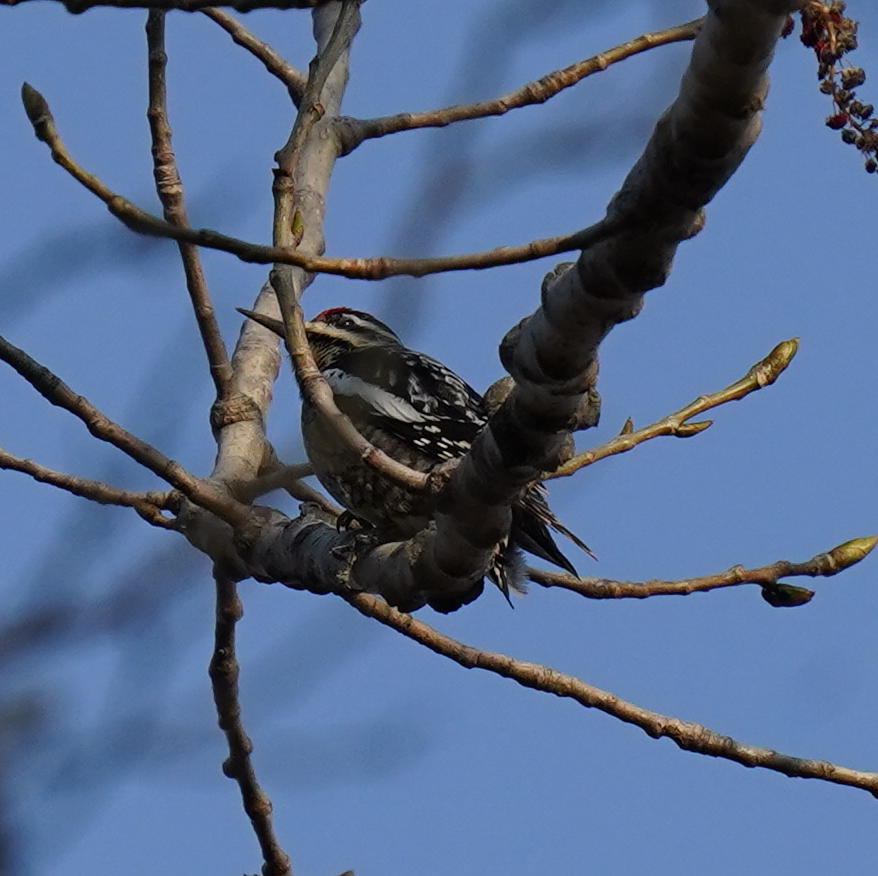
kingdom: Animalia
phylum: Chordata
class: Aves
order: Piciformes
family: Picidae
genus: Sphyrapicus
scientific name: Sphyrapicus varius
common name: Yellow-bellied sapsucker
